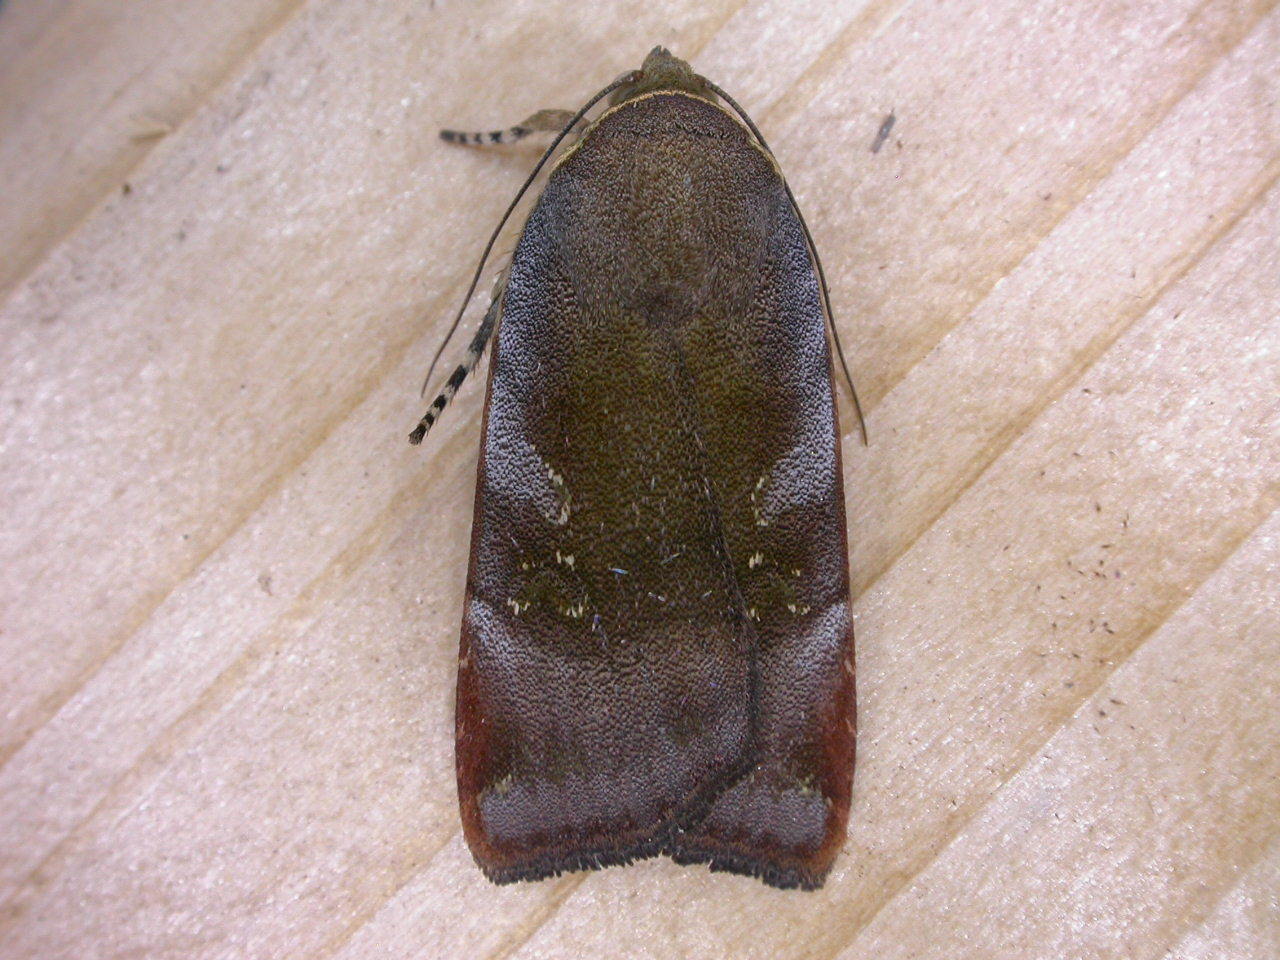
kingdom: Animalia
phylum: Arthropoda
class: Insecta
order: Lepidoptera
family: Noctuidae
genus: Noctua
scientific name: Noctua janthe
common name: Lesser broad-bordered yellow underwing
